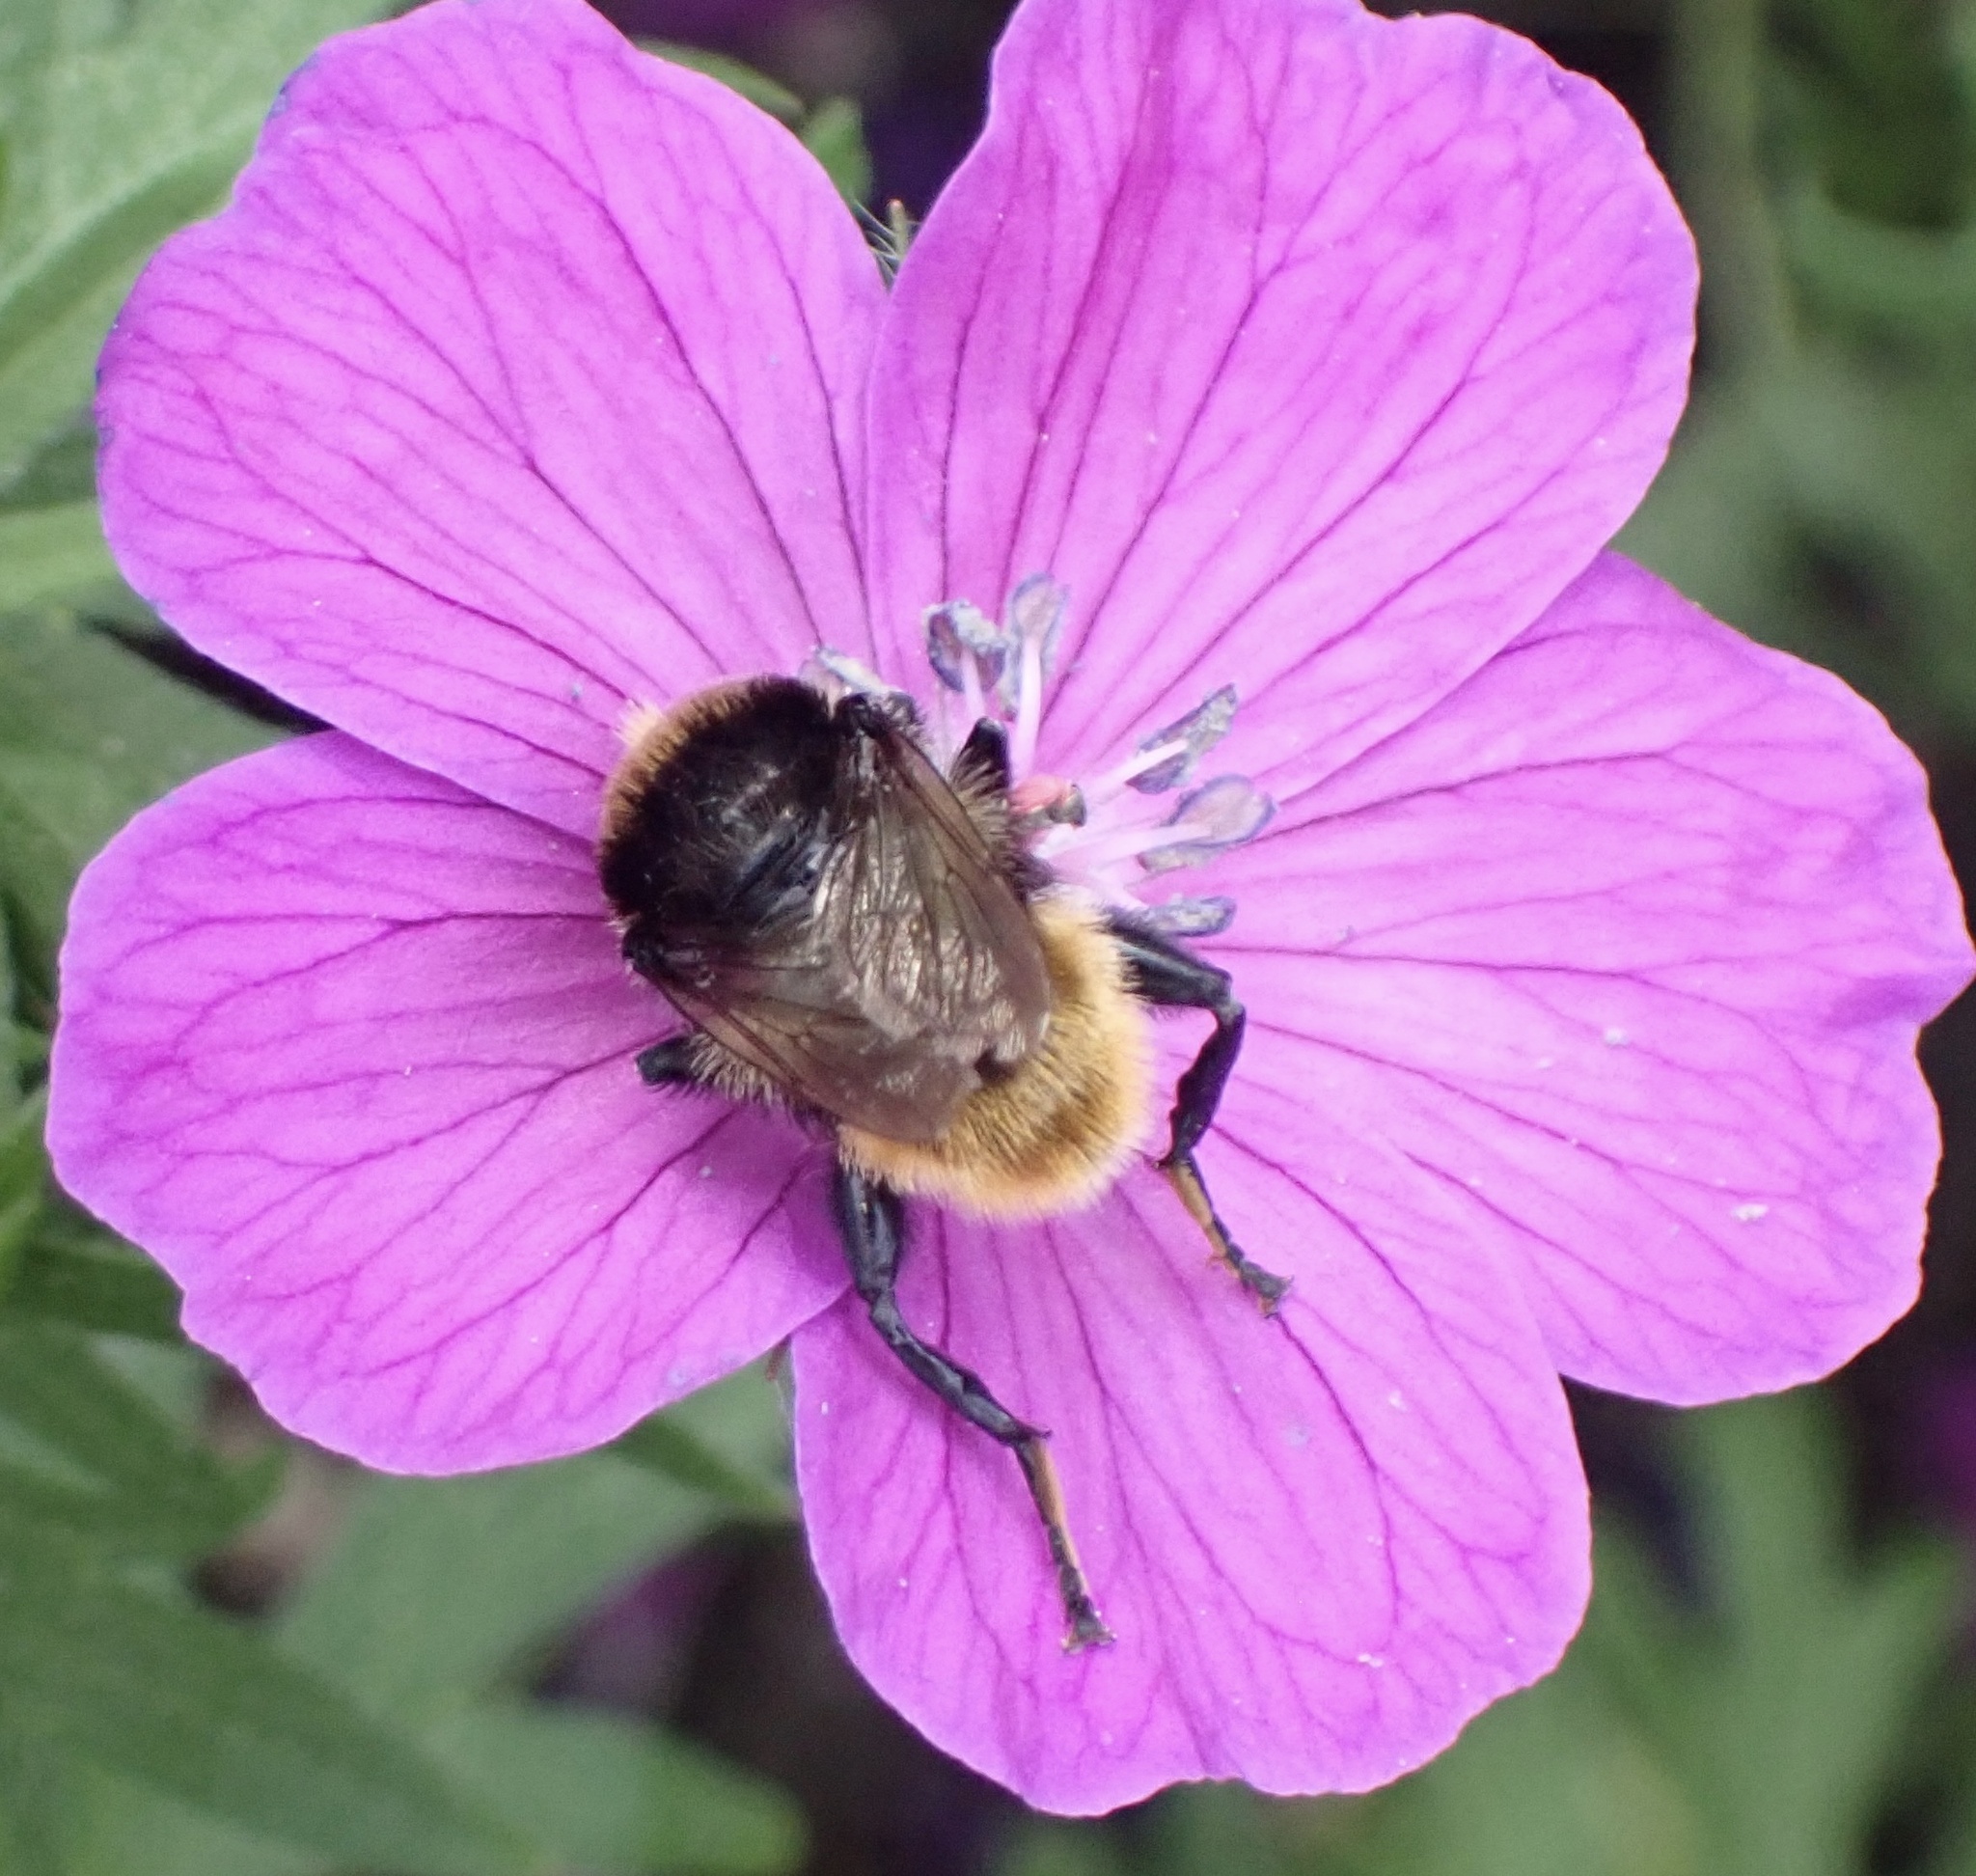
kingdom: Animalia
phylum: Arthropoda
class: Insecta
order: Diptera
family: Syrphidae
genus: Merodon
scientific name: Merodon equestris
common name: Greater bulb-fly
